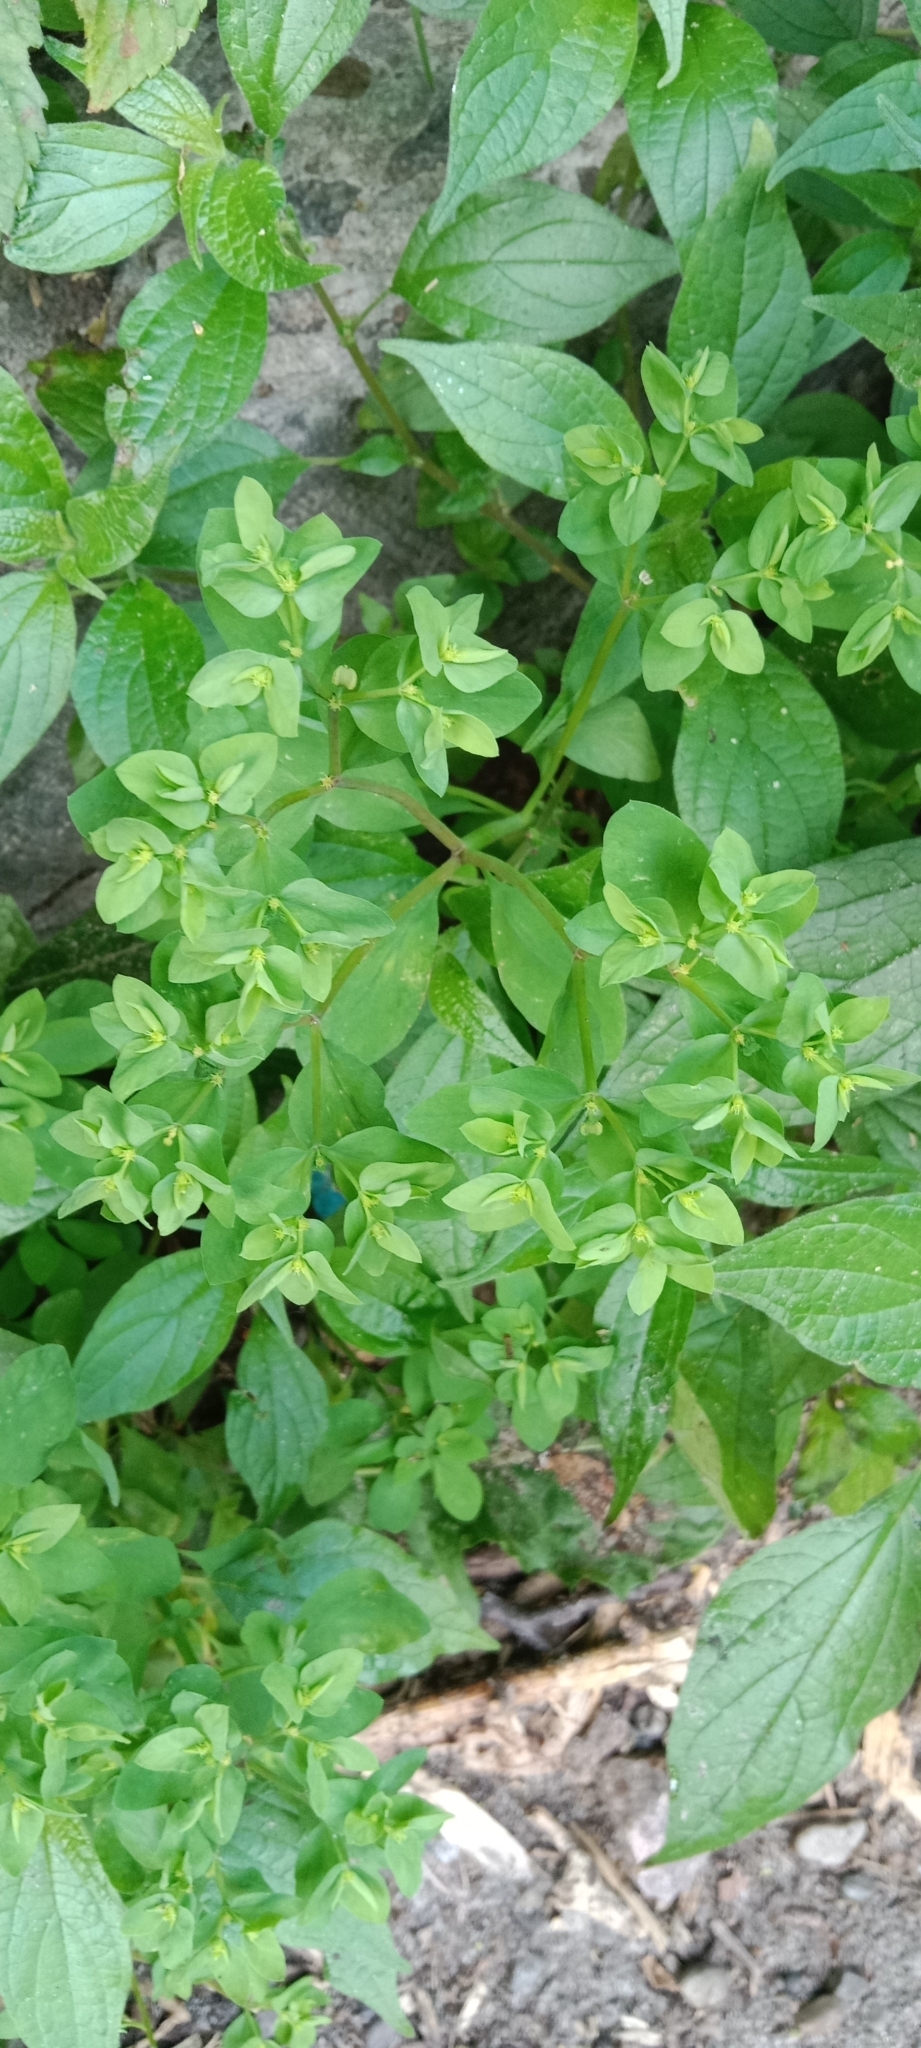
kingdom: Plantae
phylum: Tracheophyta
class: Magnoliopsida
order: Malpighiales
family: Euphorbiaceae
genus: Euphorbia
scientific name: Euphorbia peplus
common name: Petty spurge
